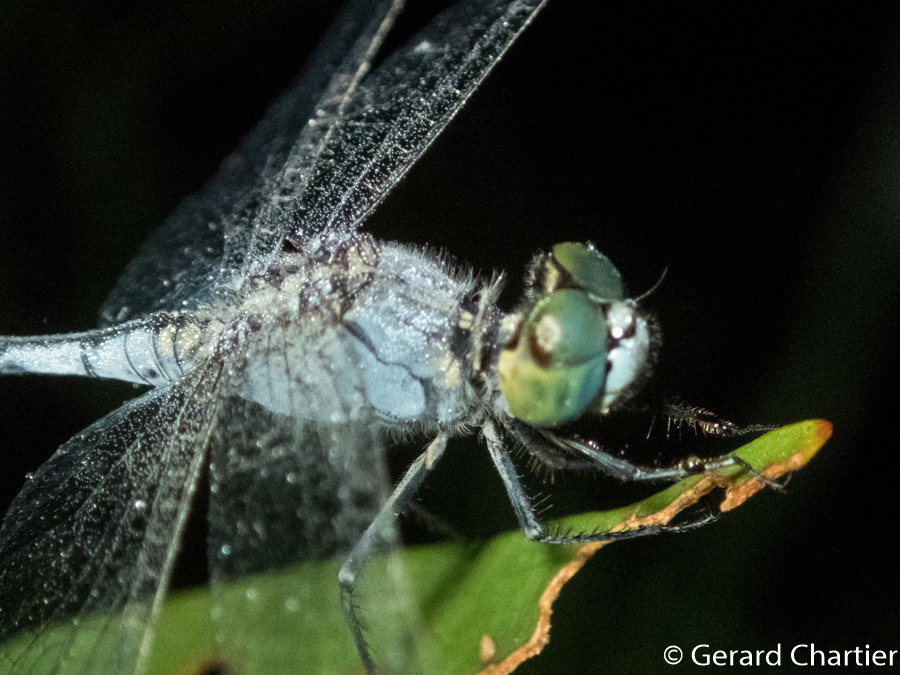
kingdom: Animalia
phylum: Arthropoda
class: Insecta
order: Odonata
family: Libellulidae
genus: Diplacodes
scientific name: Diplacodes trivialis
